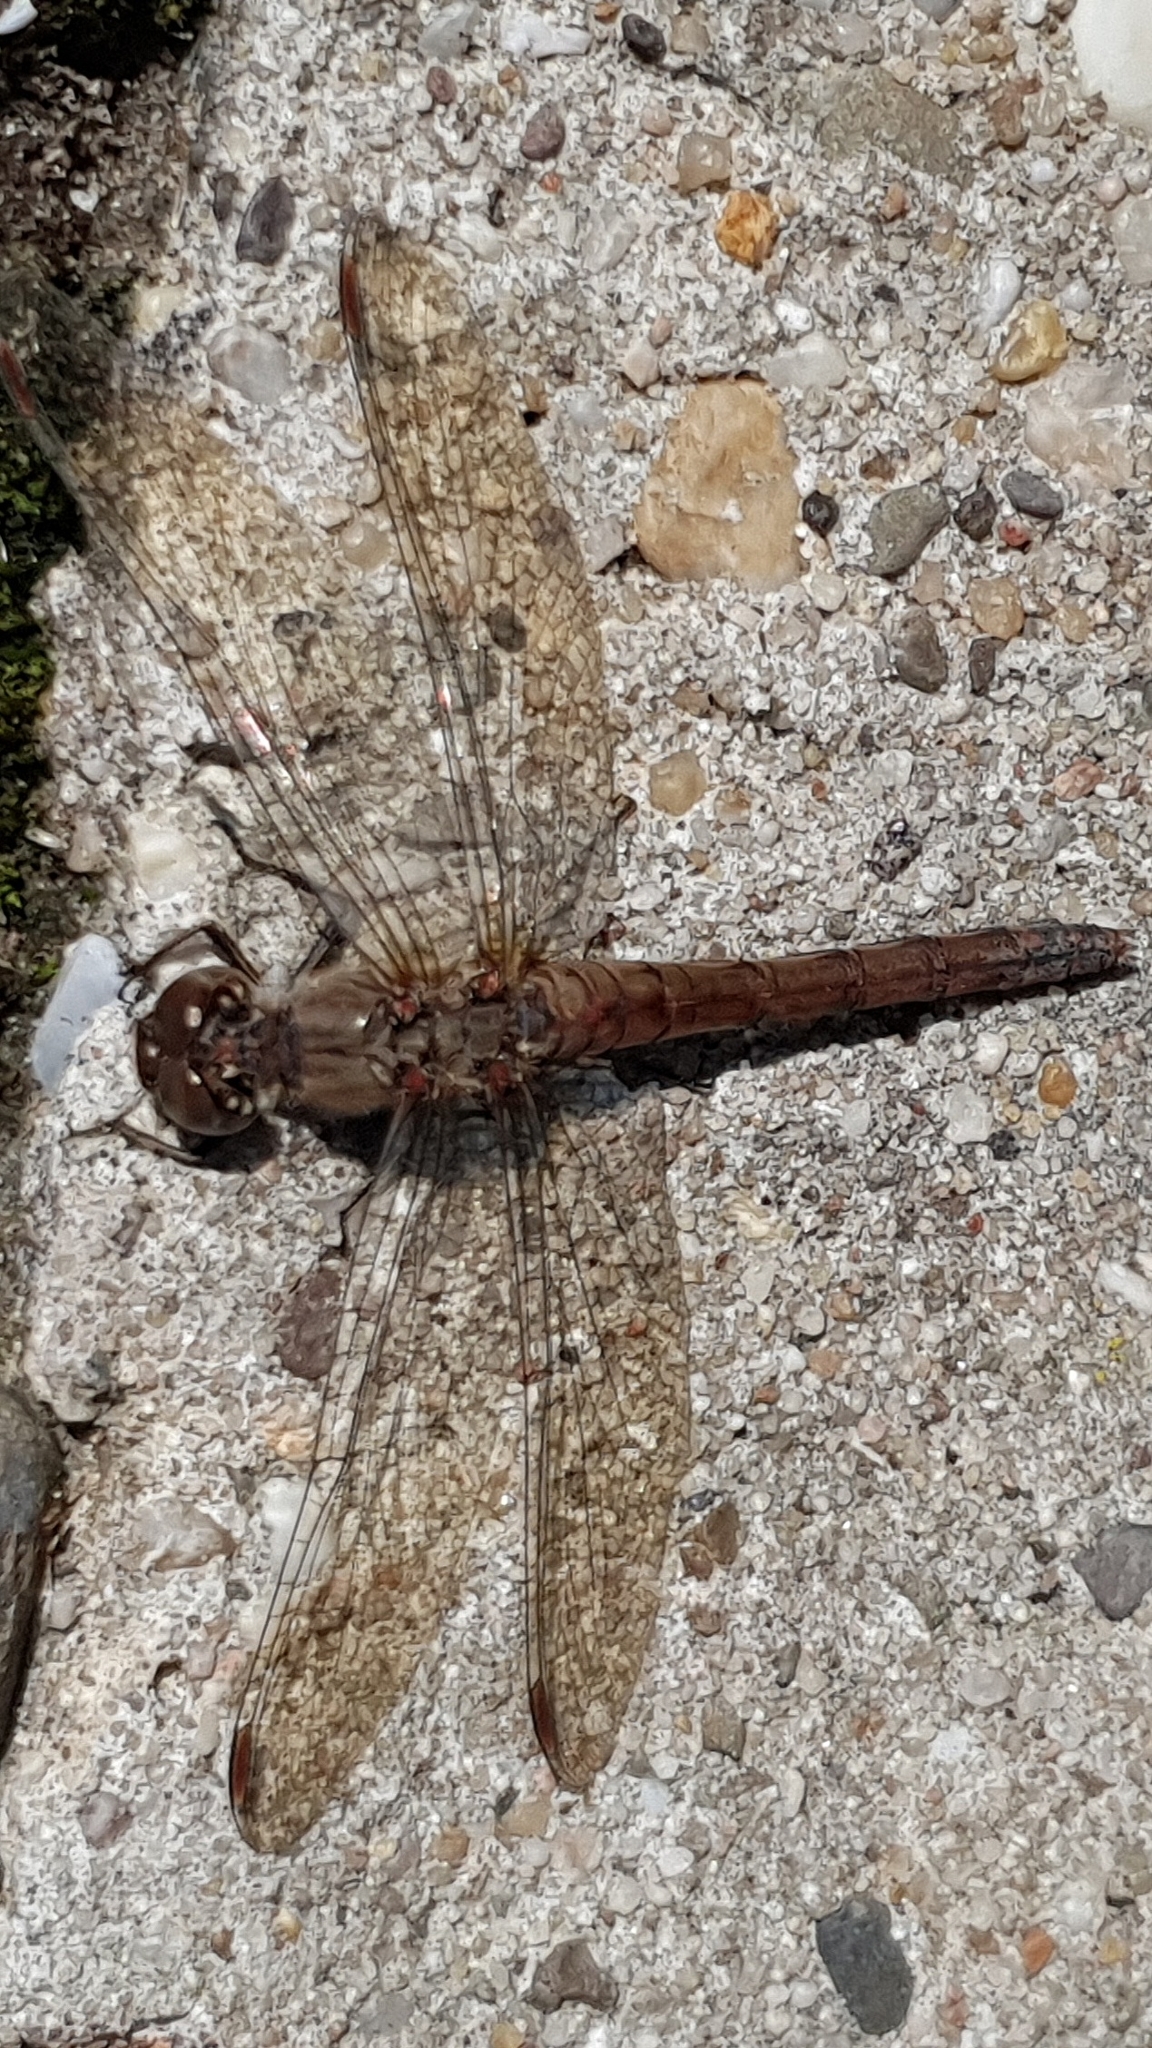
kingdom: Animalia
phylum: Arthropoda
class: Insecta
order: Odonata
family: Libellulidae
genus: Sympetrum
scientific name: Sympetrum striolatum
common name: Common darter
